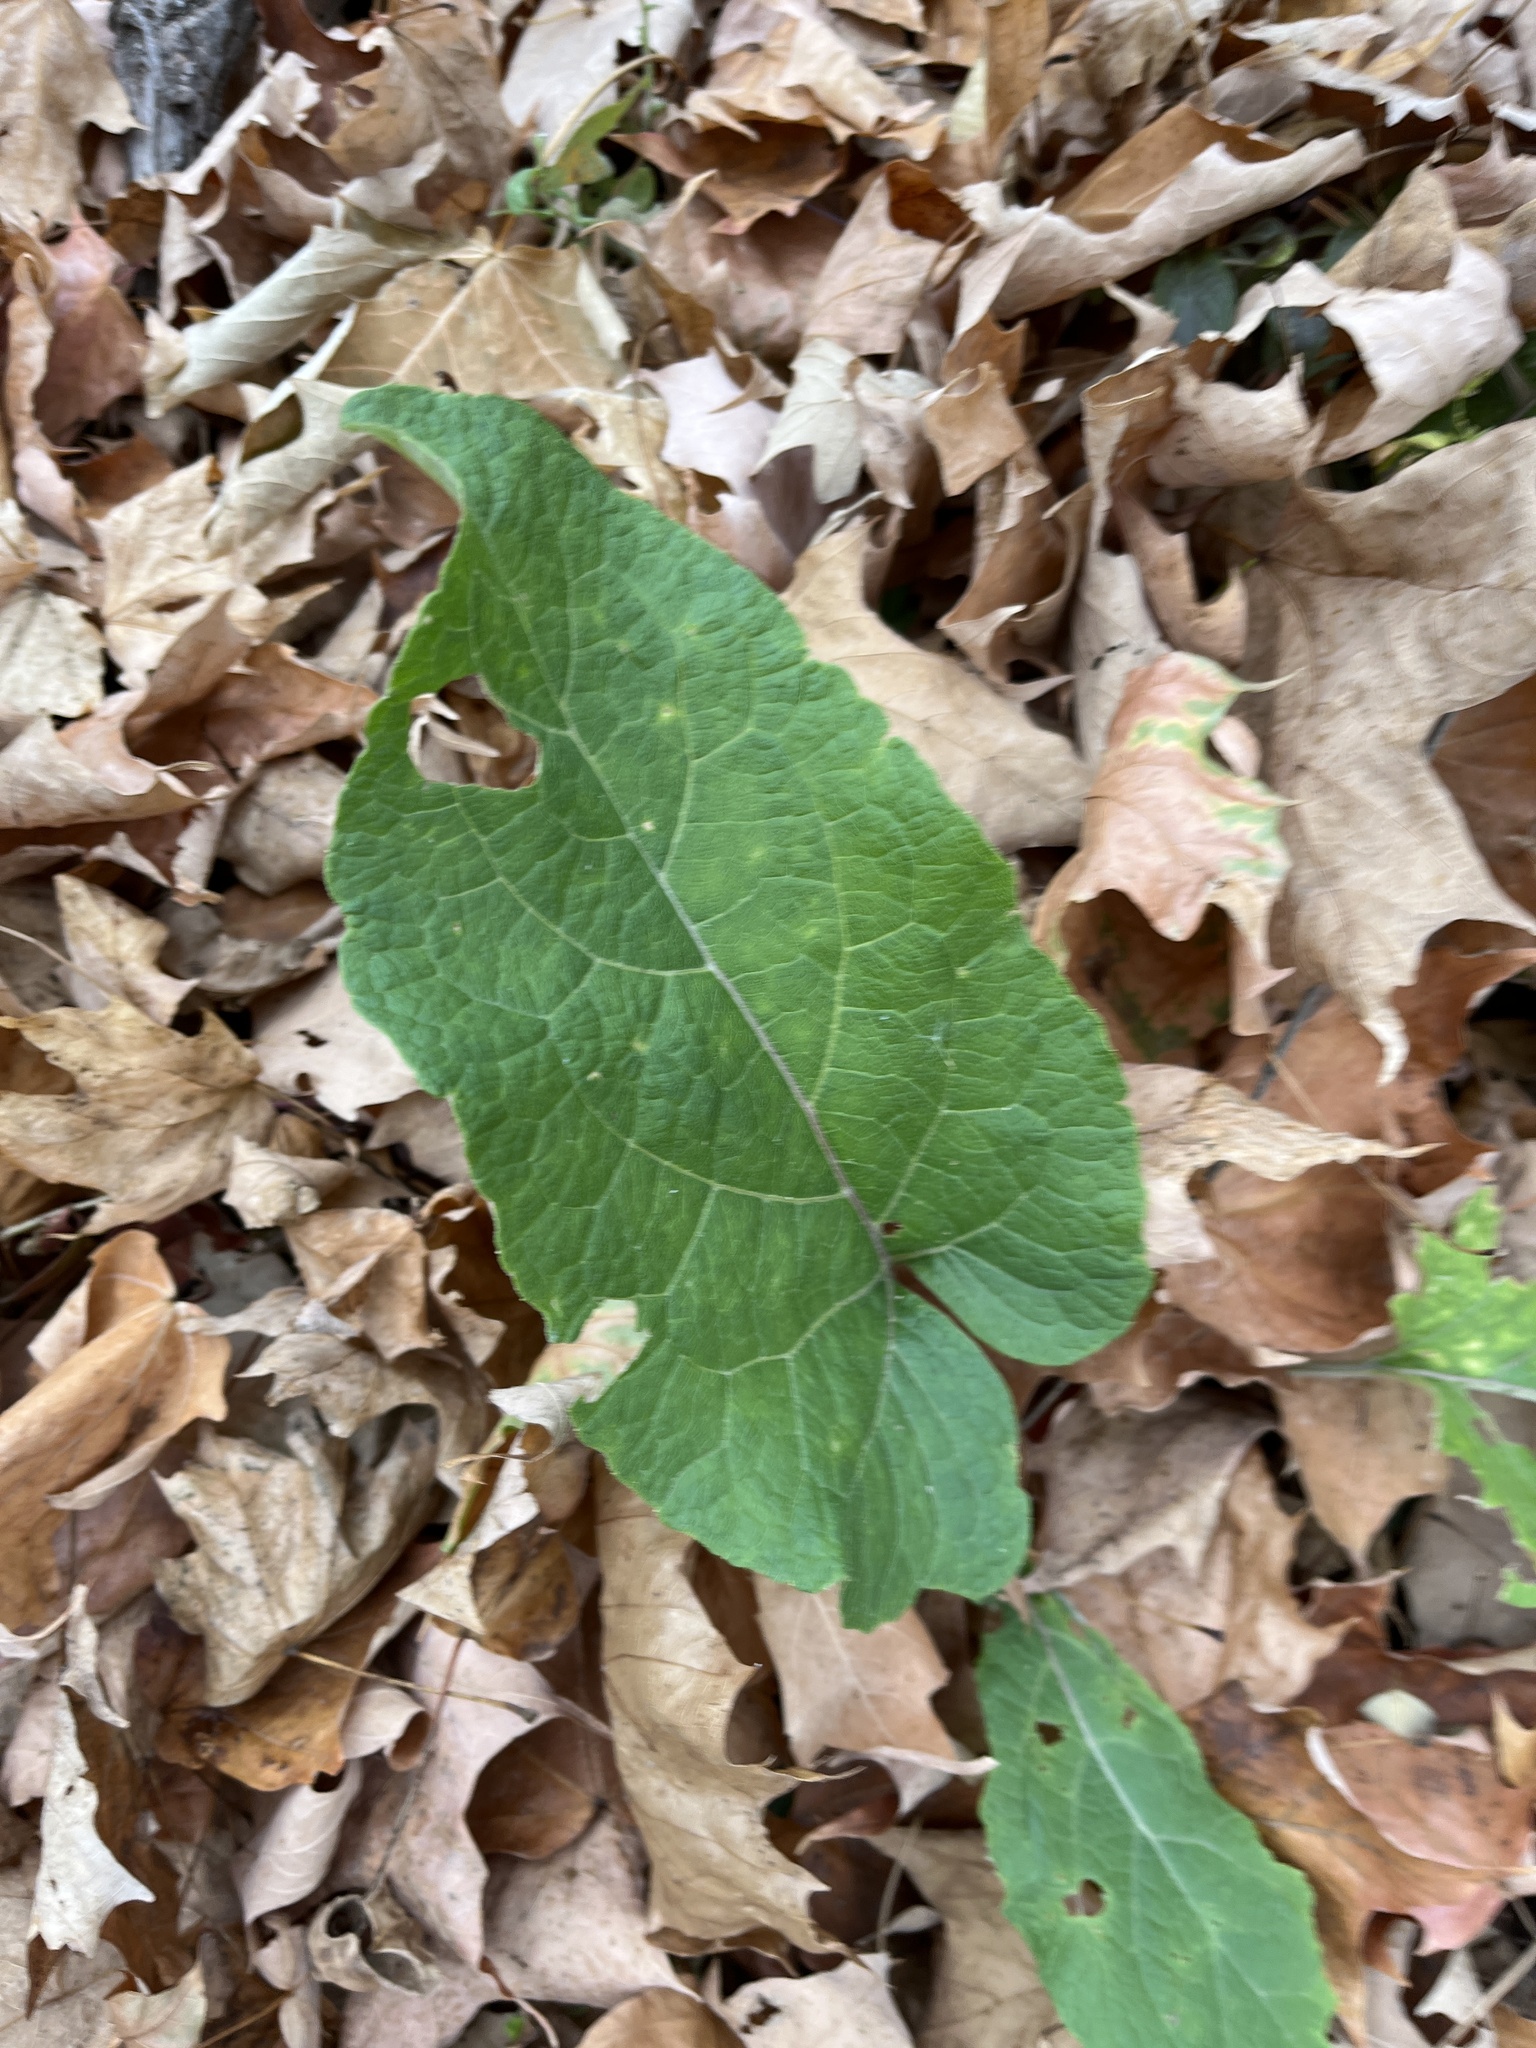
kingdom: Plantae
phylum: Tracheophyta
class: Magnoliopsida
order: Asterales
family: Asteraceae
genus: Arctium
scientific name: Arctium
